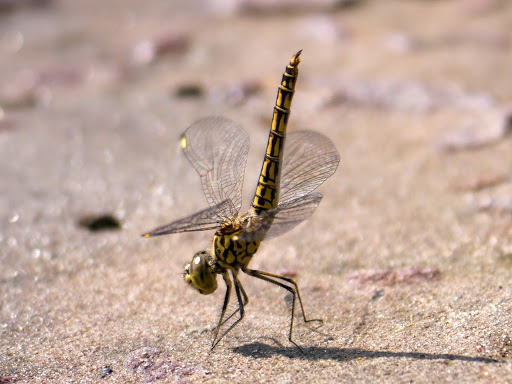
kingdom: Animalia
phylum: Arthropoda
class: Insecta
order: Odonata
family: Libellulidae
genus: Brachythemis
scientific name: Brachythemis leucosticta
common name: Banded groundling
